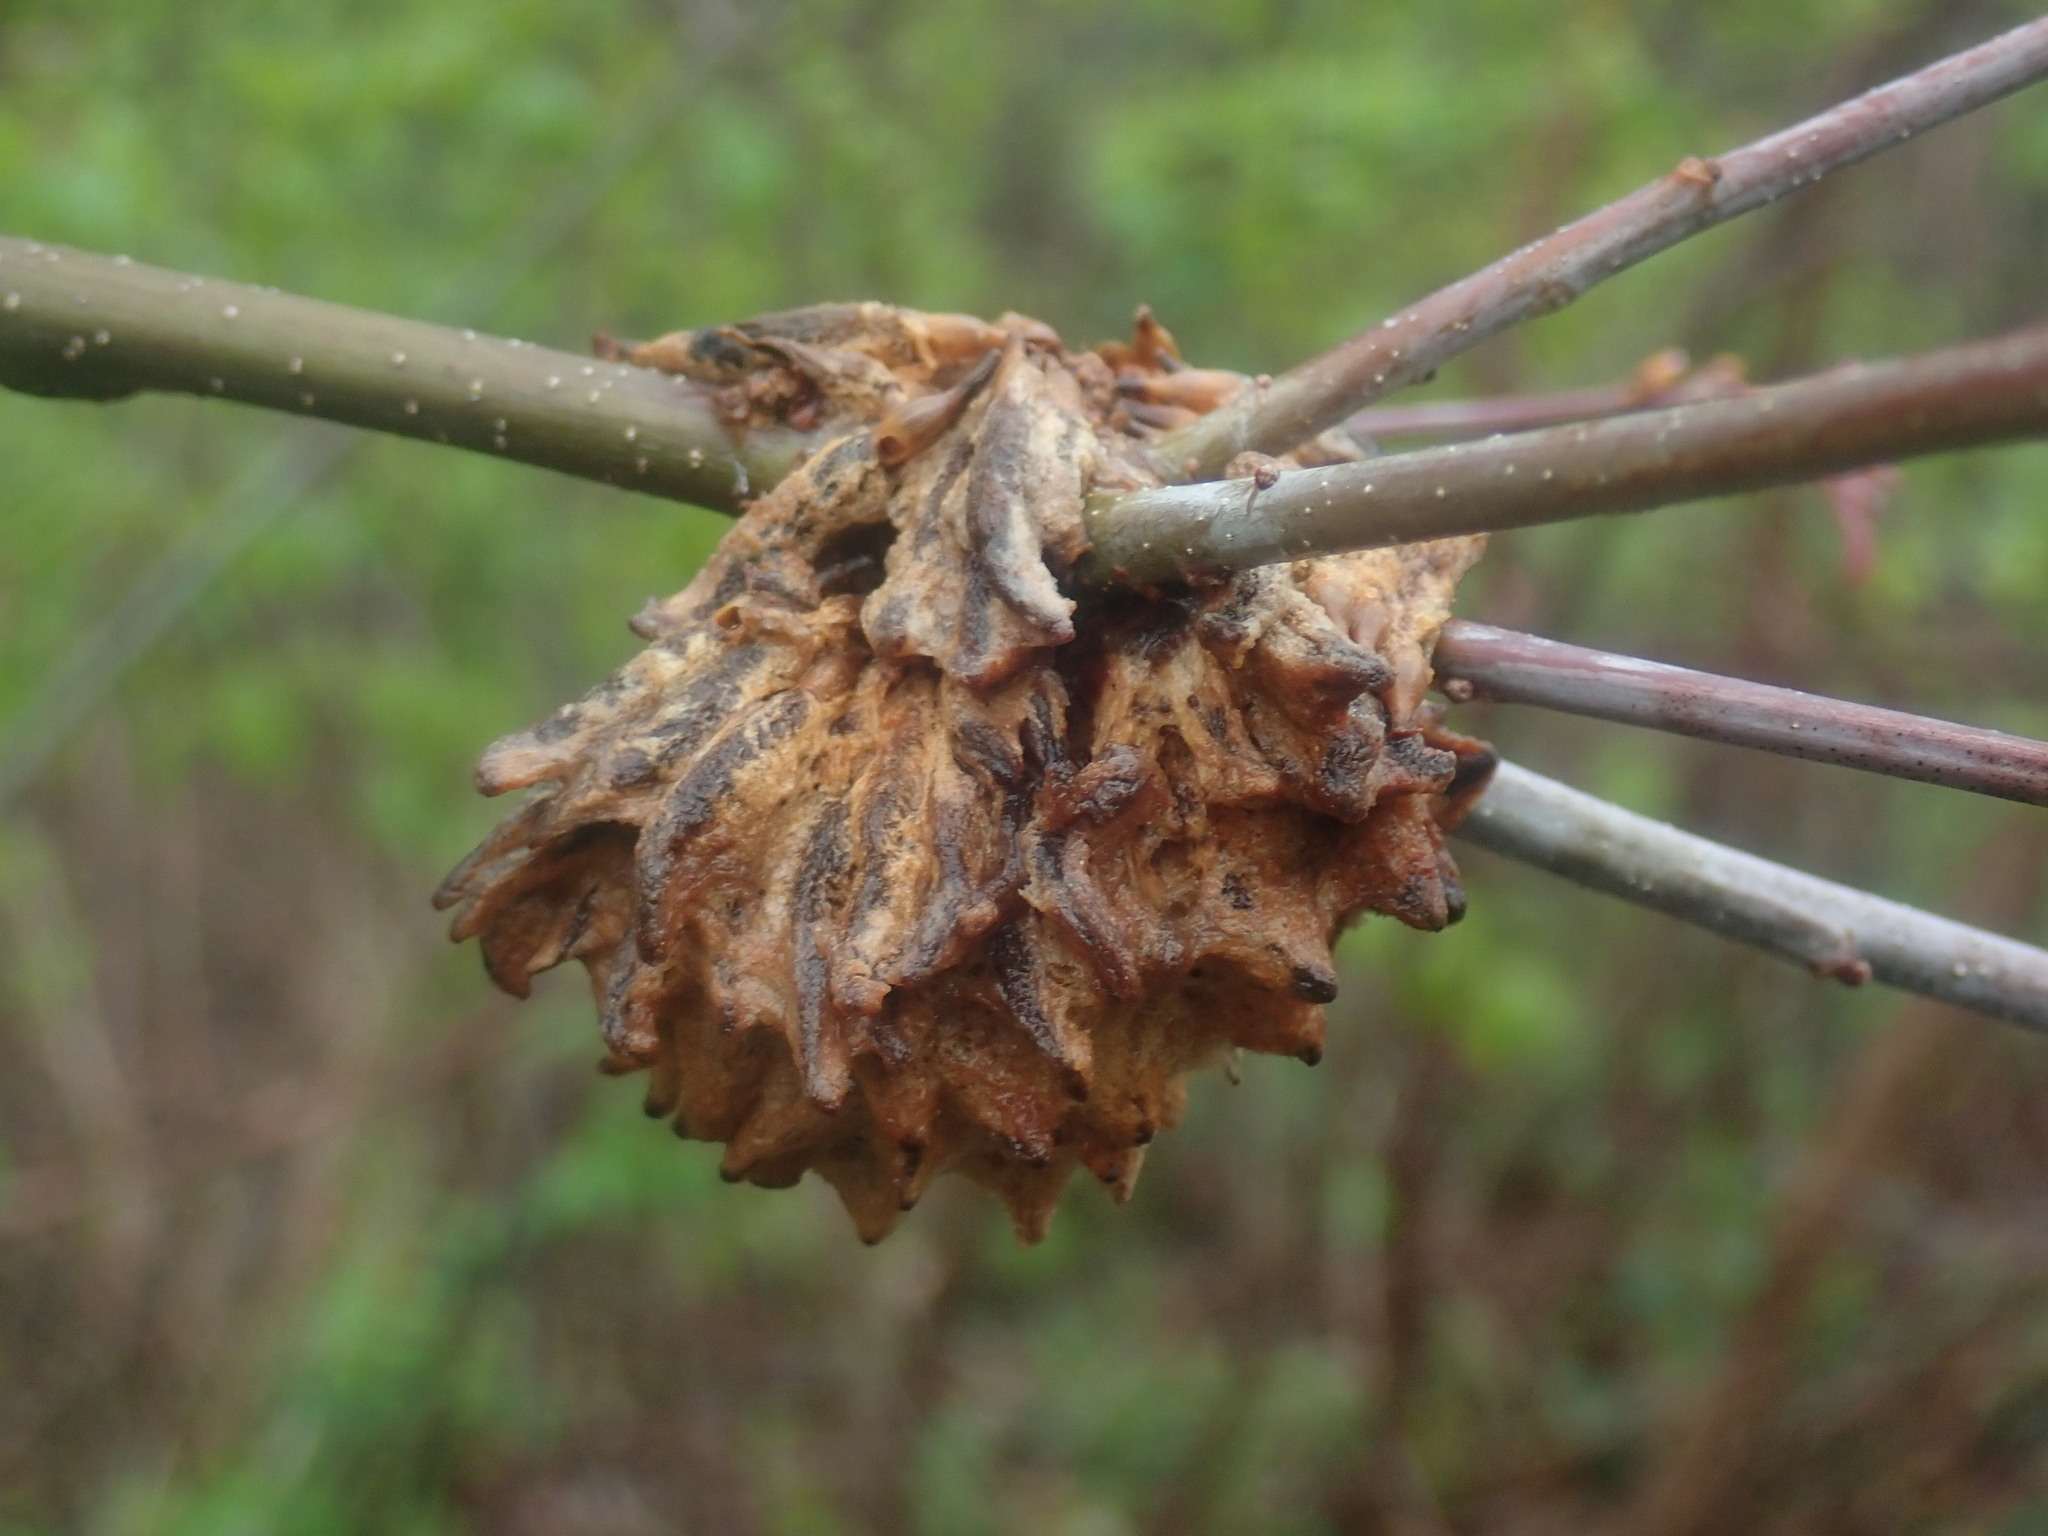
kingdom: Animalia
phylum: Arthropoda
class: Insecta
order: Hymenoptera
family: Cynipidae
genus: Callirhytis
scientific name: Callirhytis
